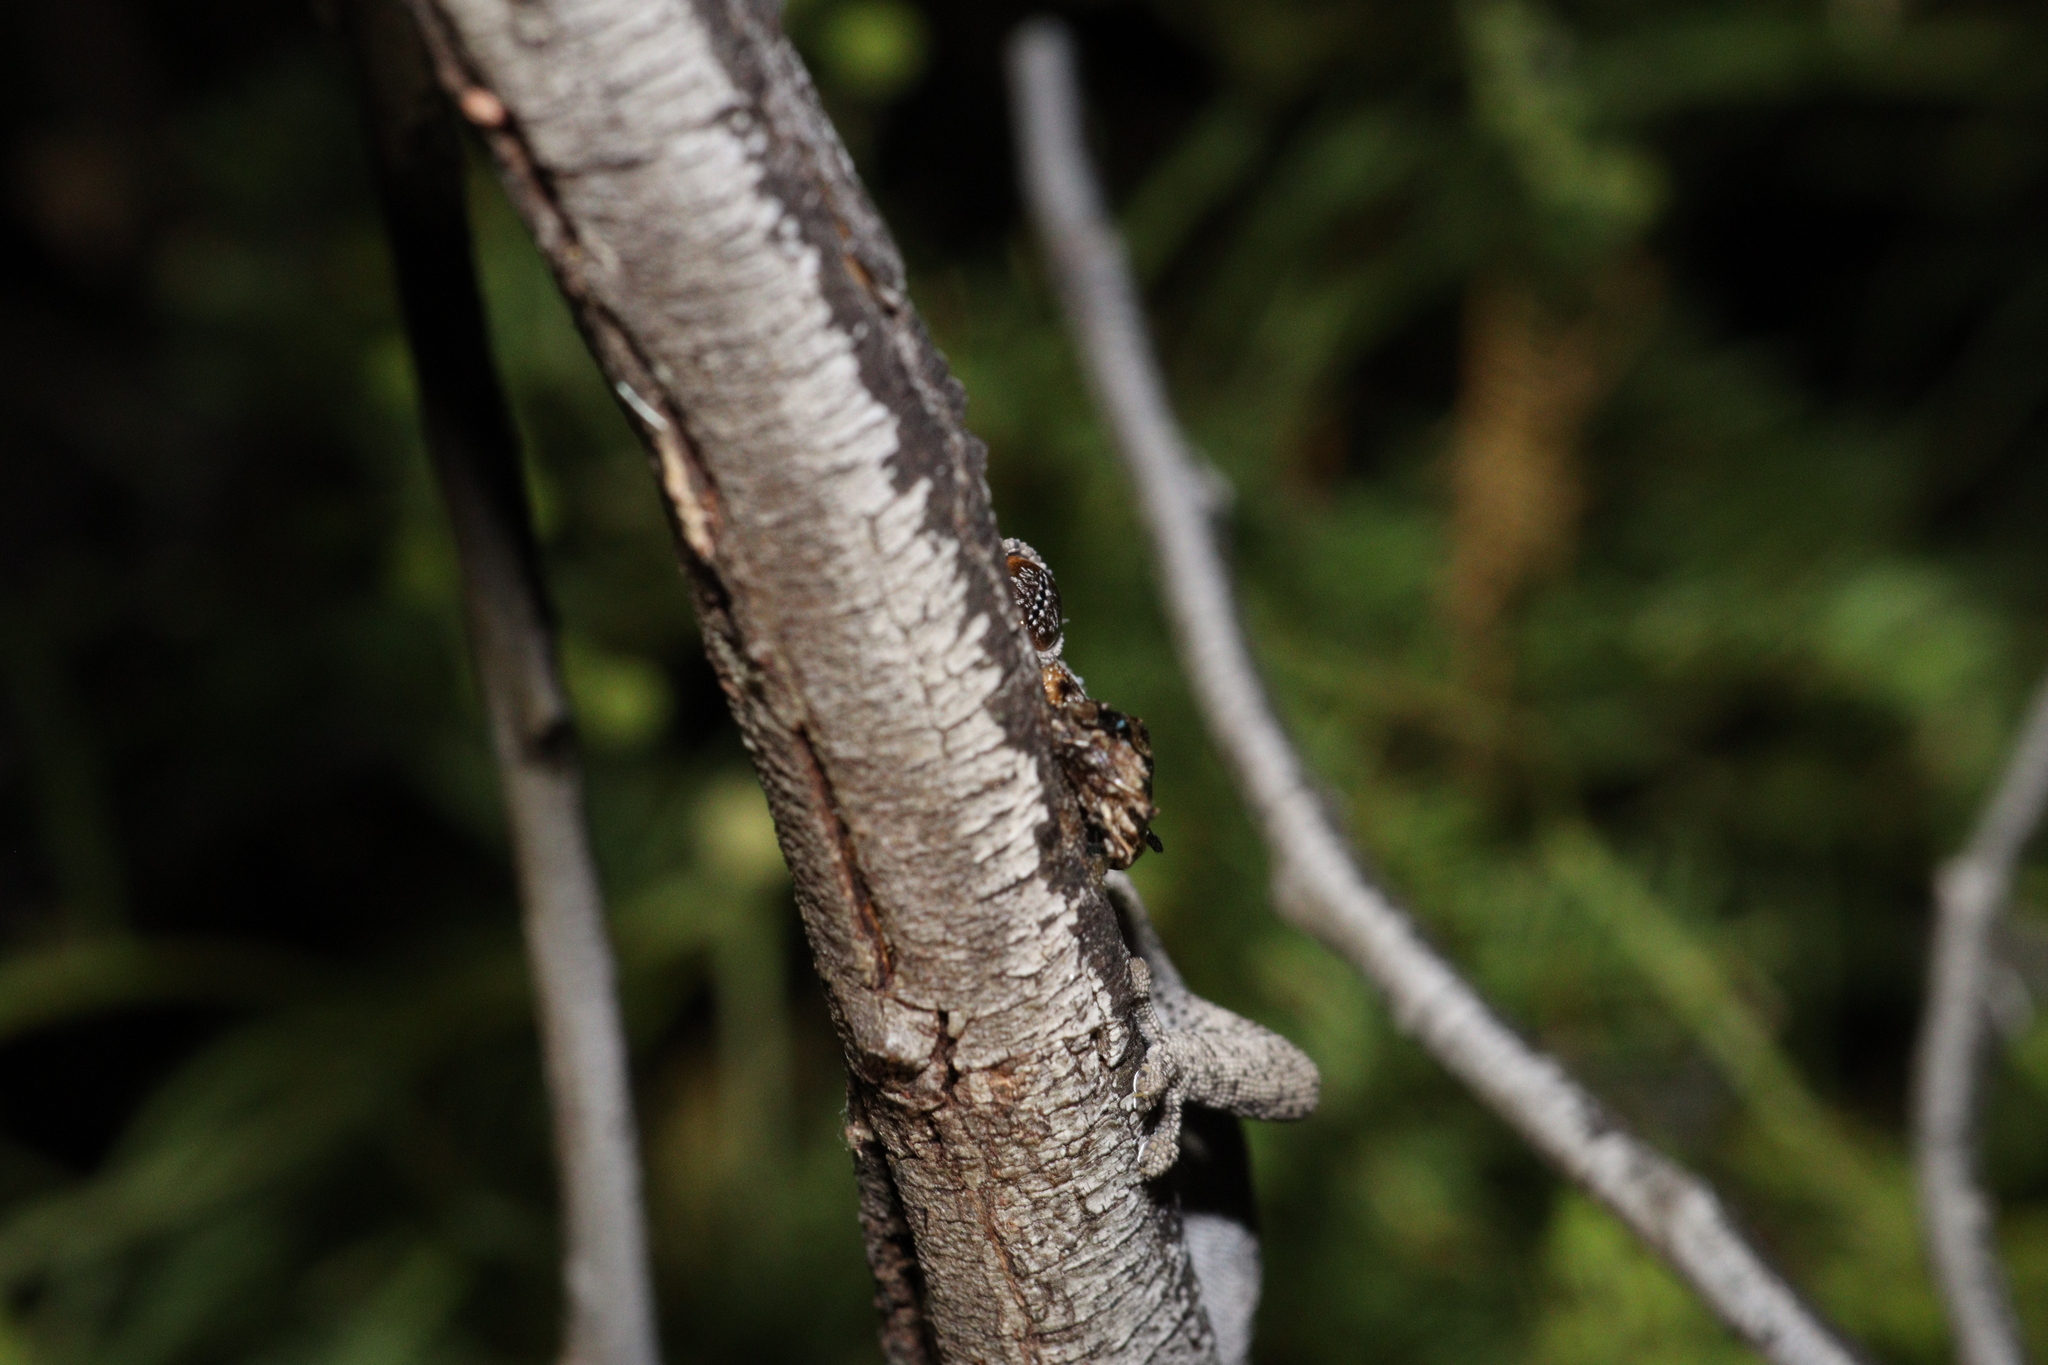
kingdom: Animalia
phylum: Chordata
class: Squamata
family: Diplodactylidae
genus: Strophurus
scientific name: Strophurus intermedius
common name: Eastern spiny-tailed gecko
